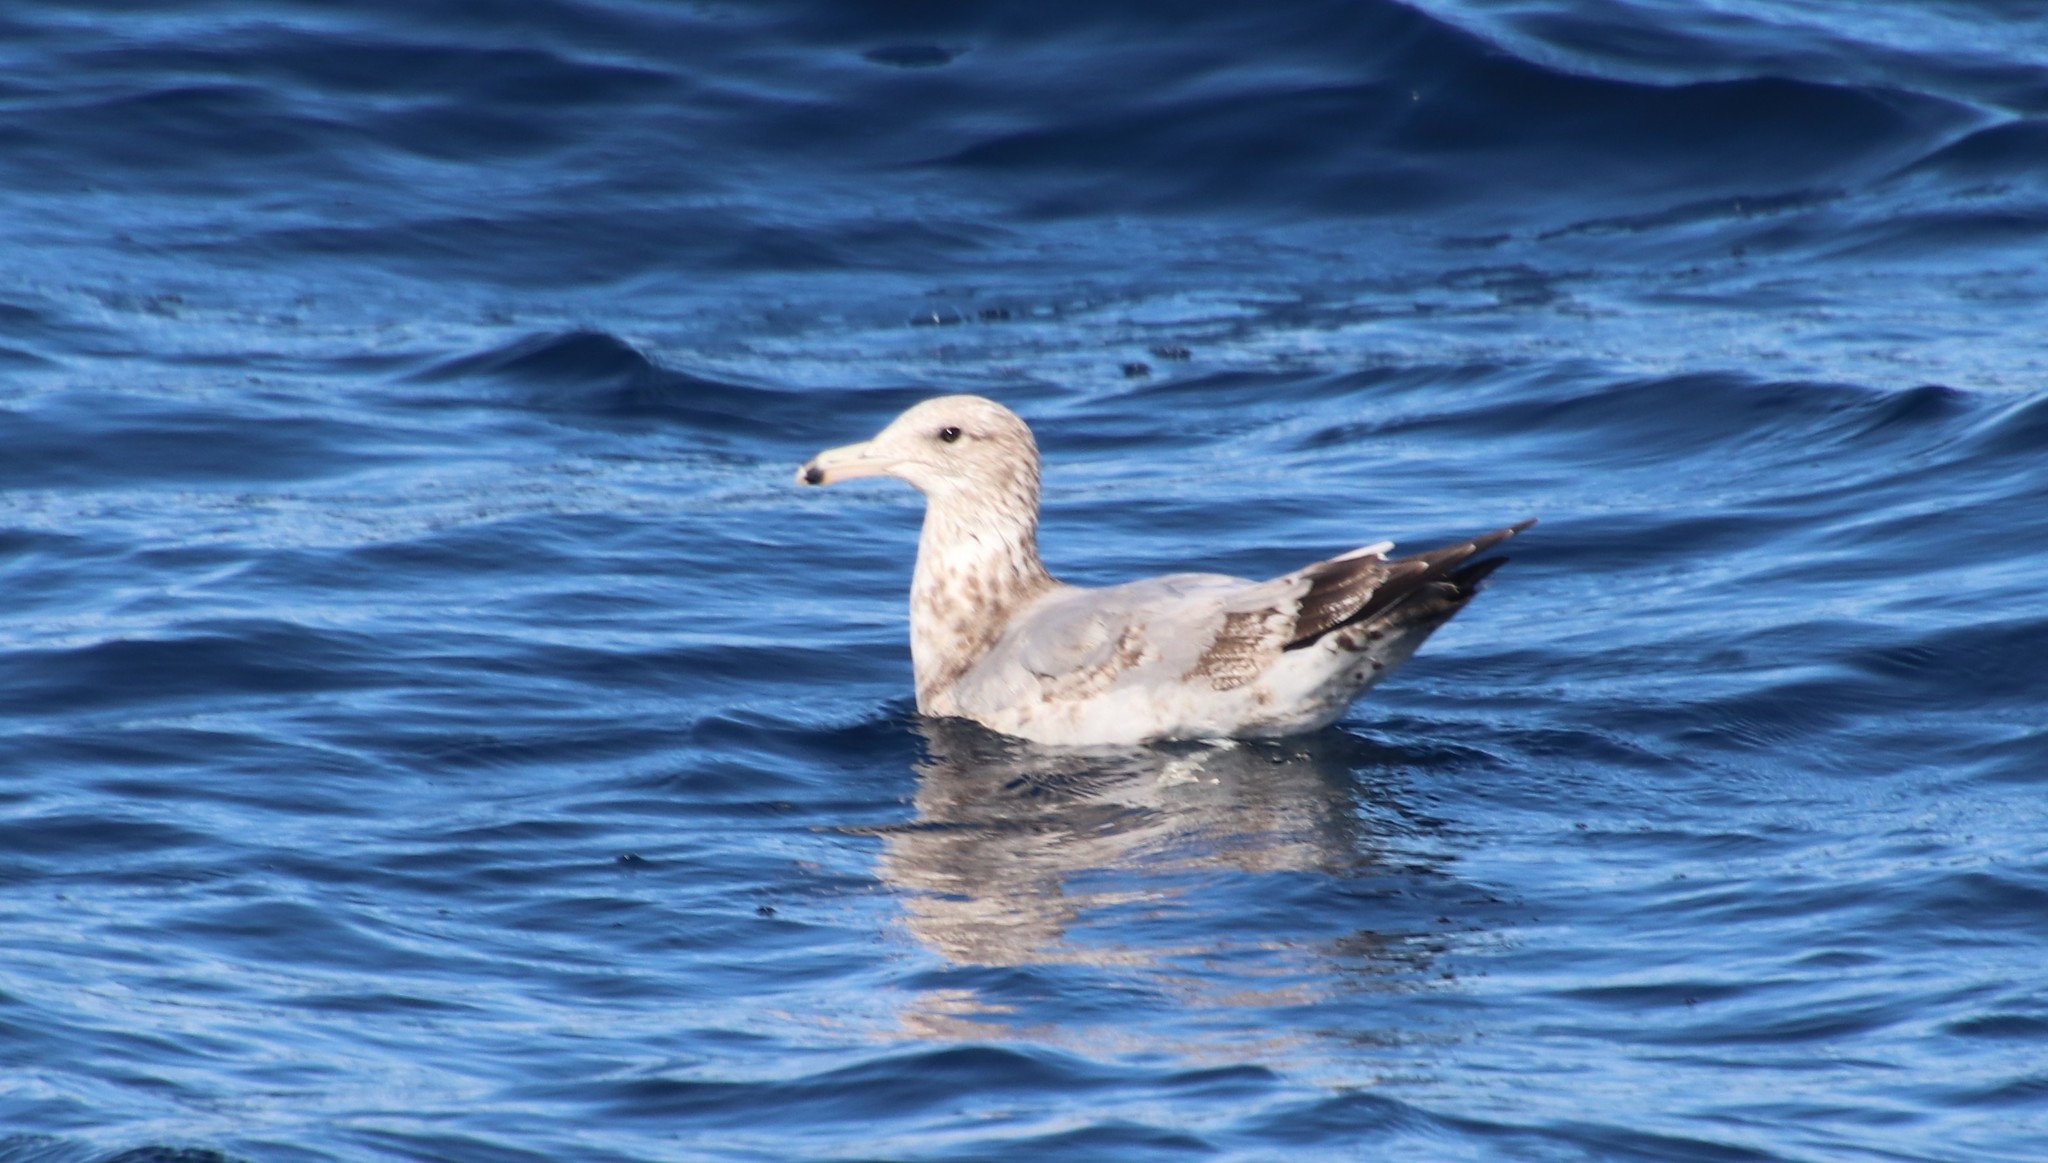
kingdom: Animalia
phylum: Chordata
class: Aves
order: Charadriiformes
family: Laridae
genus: Larus
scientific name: Larus californicus
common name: California gull
